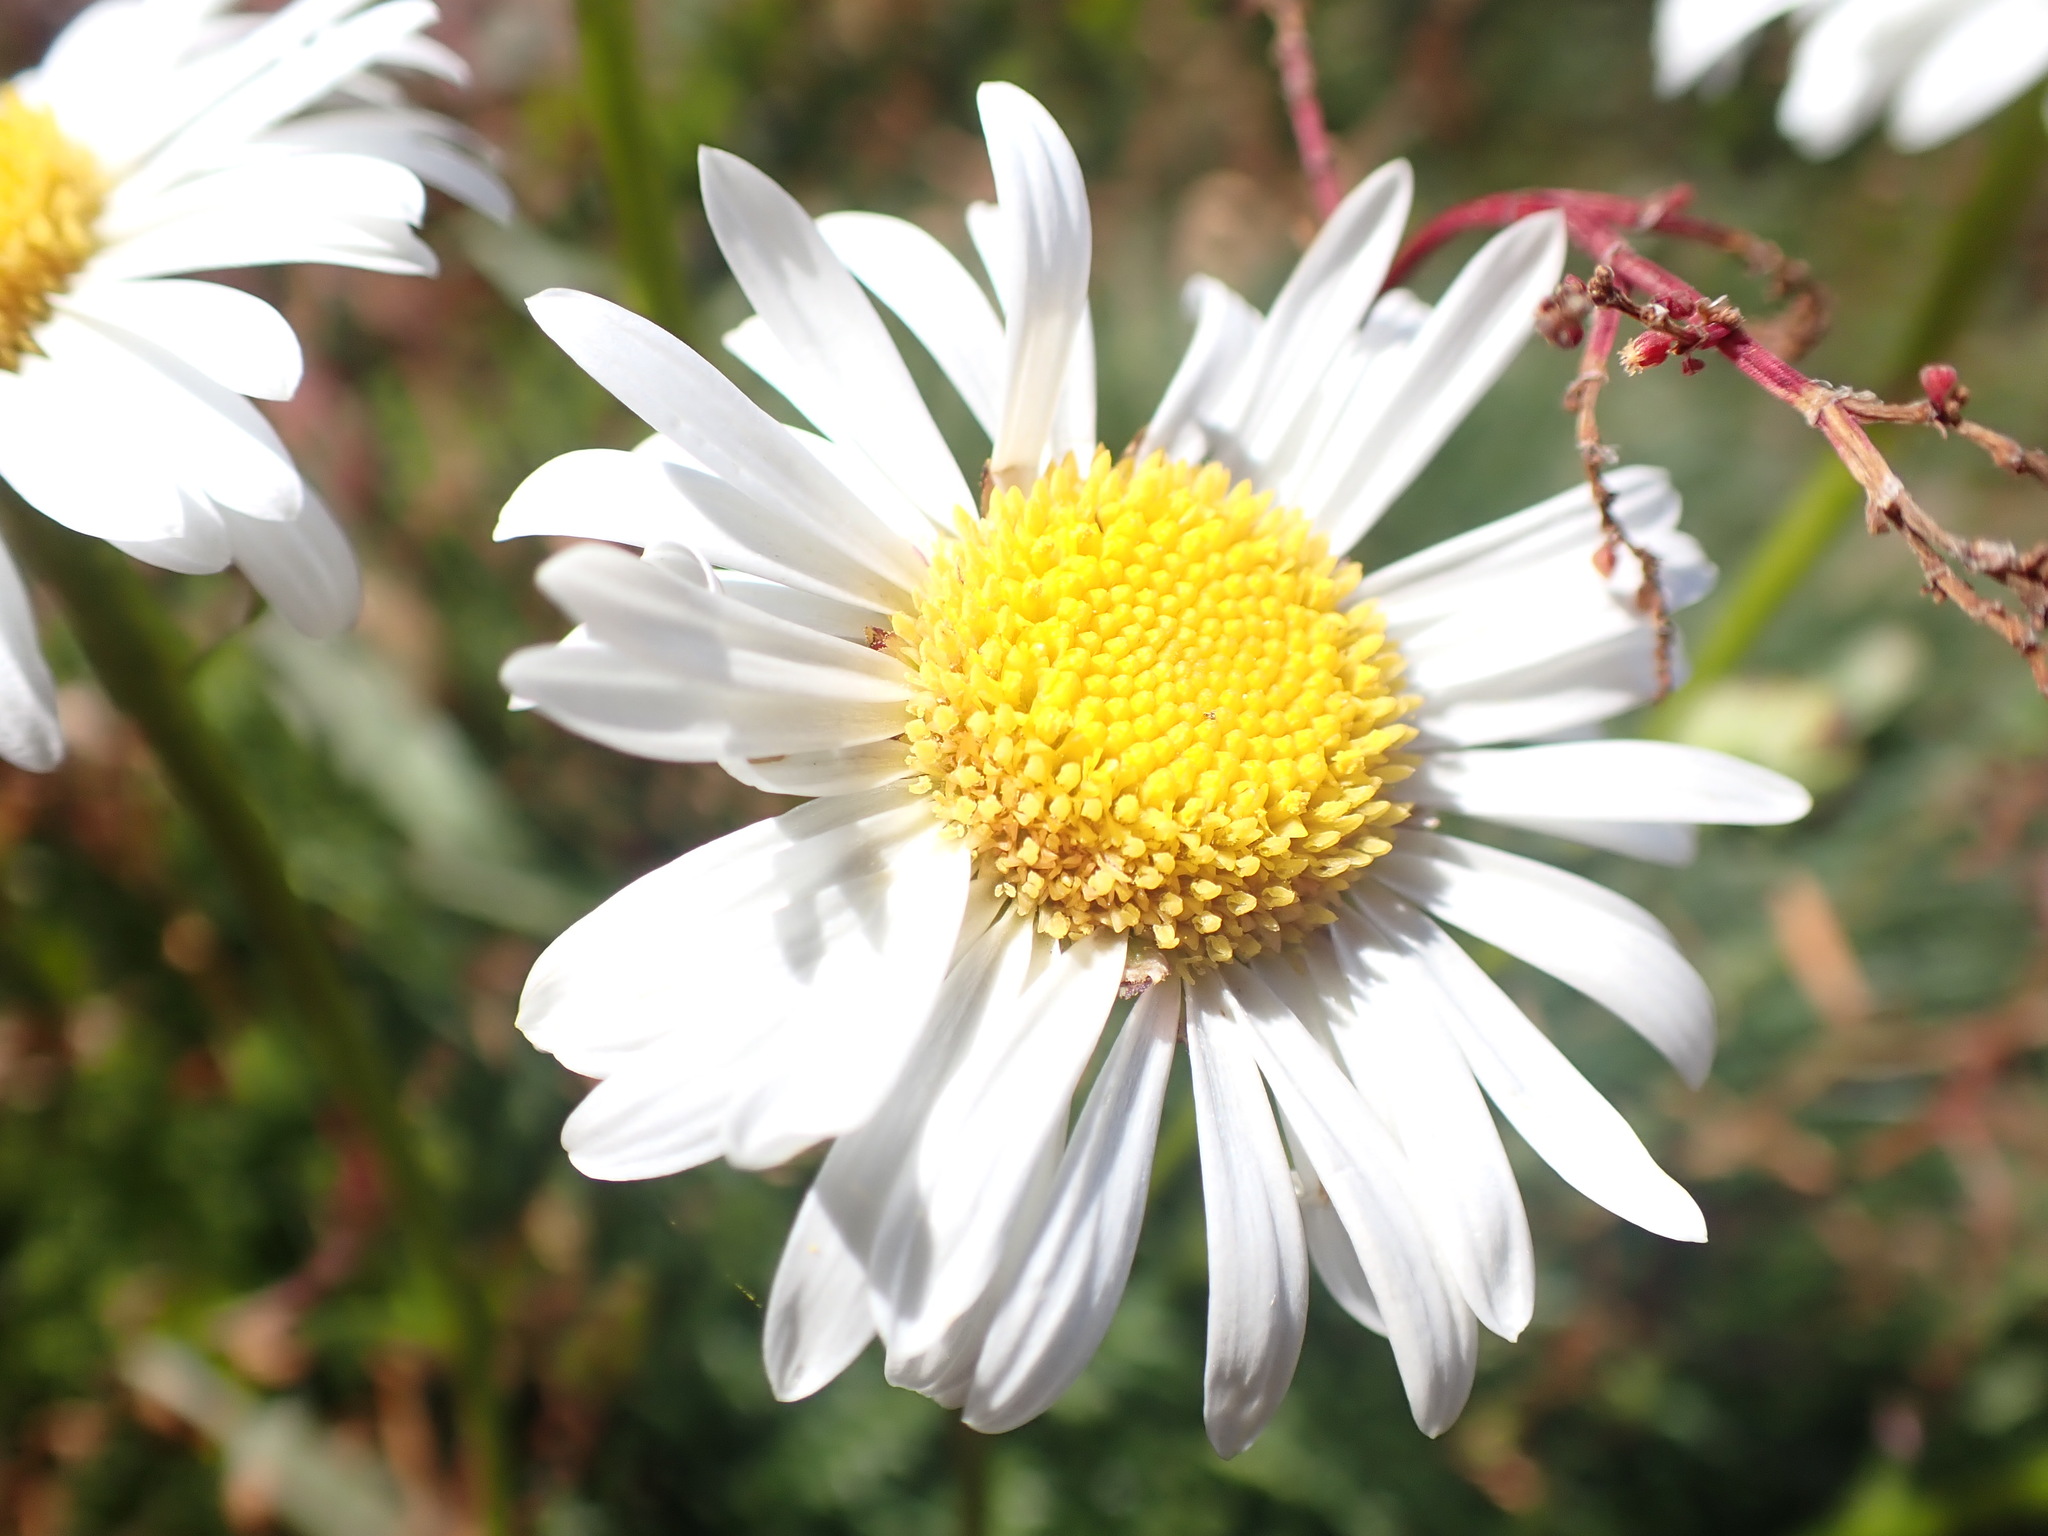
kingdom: Plantae
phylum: Tracheophyta
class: Magnoliopsida
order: Asterales
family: Asteraceae
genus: Brachyscome
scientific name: Brachyscome nivalis
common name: Snow daisy
